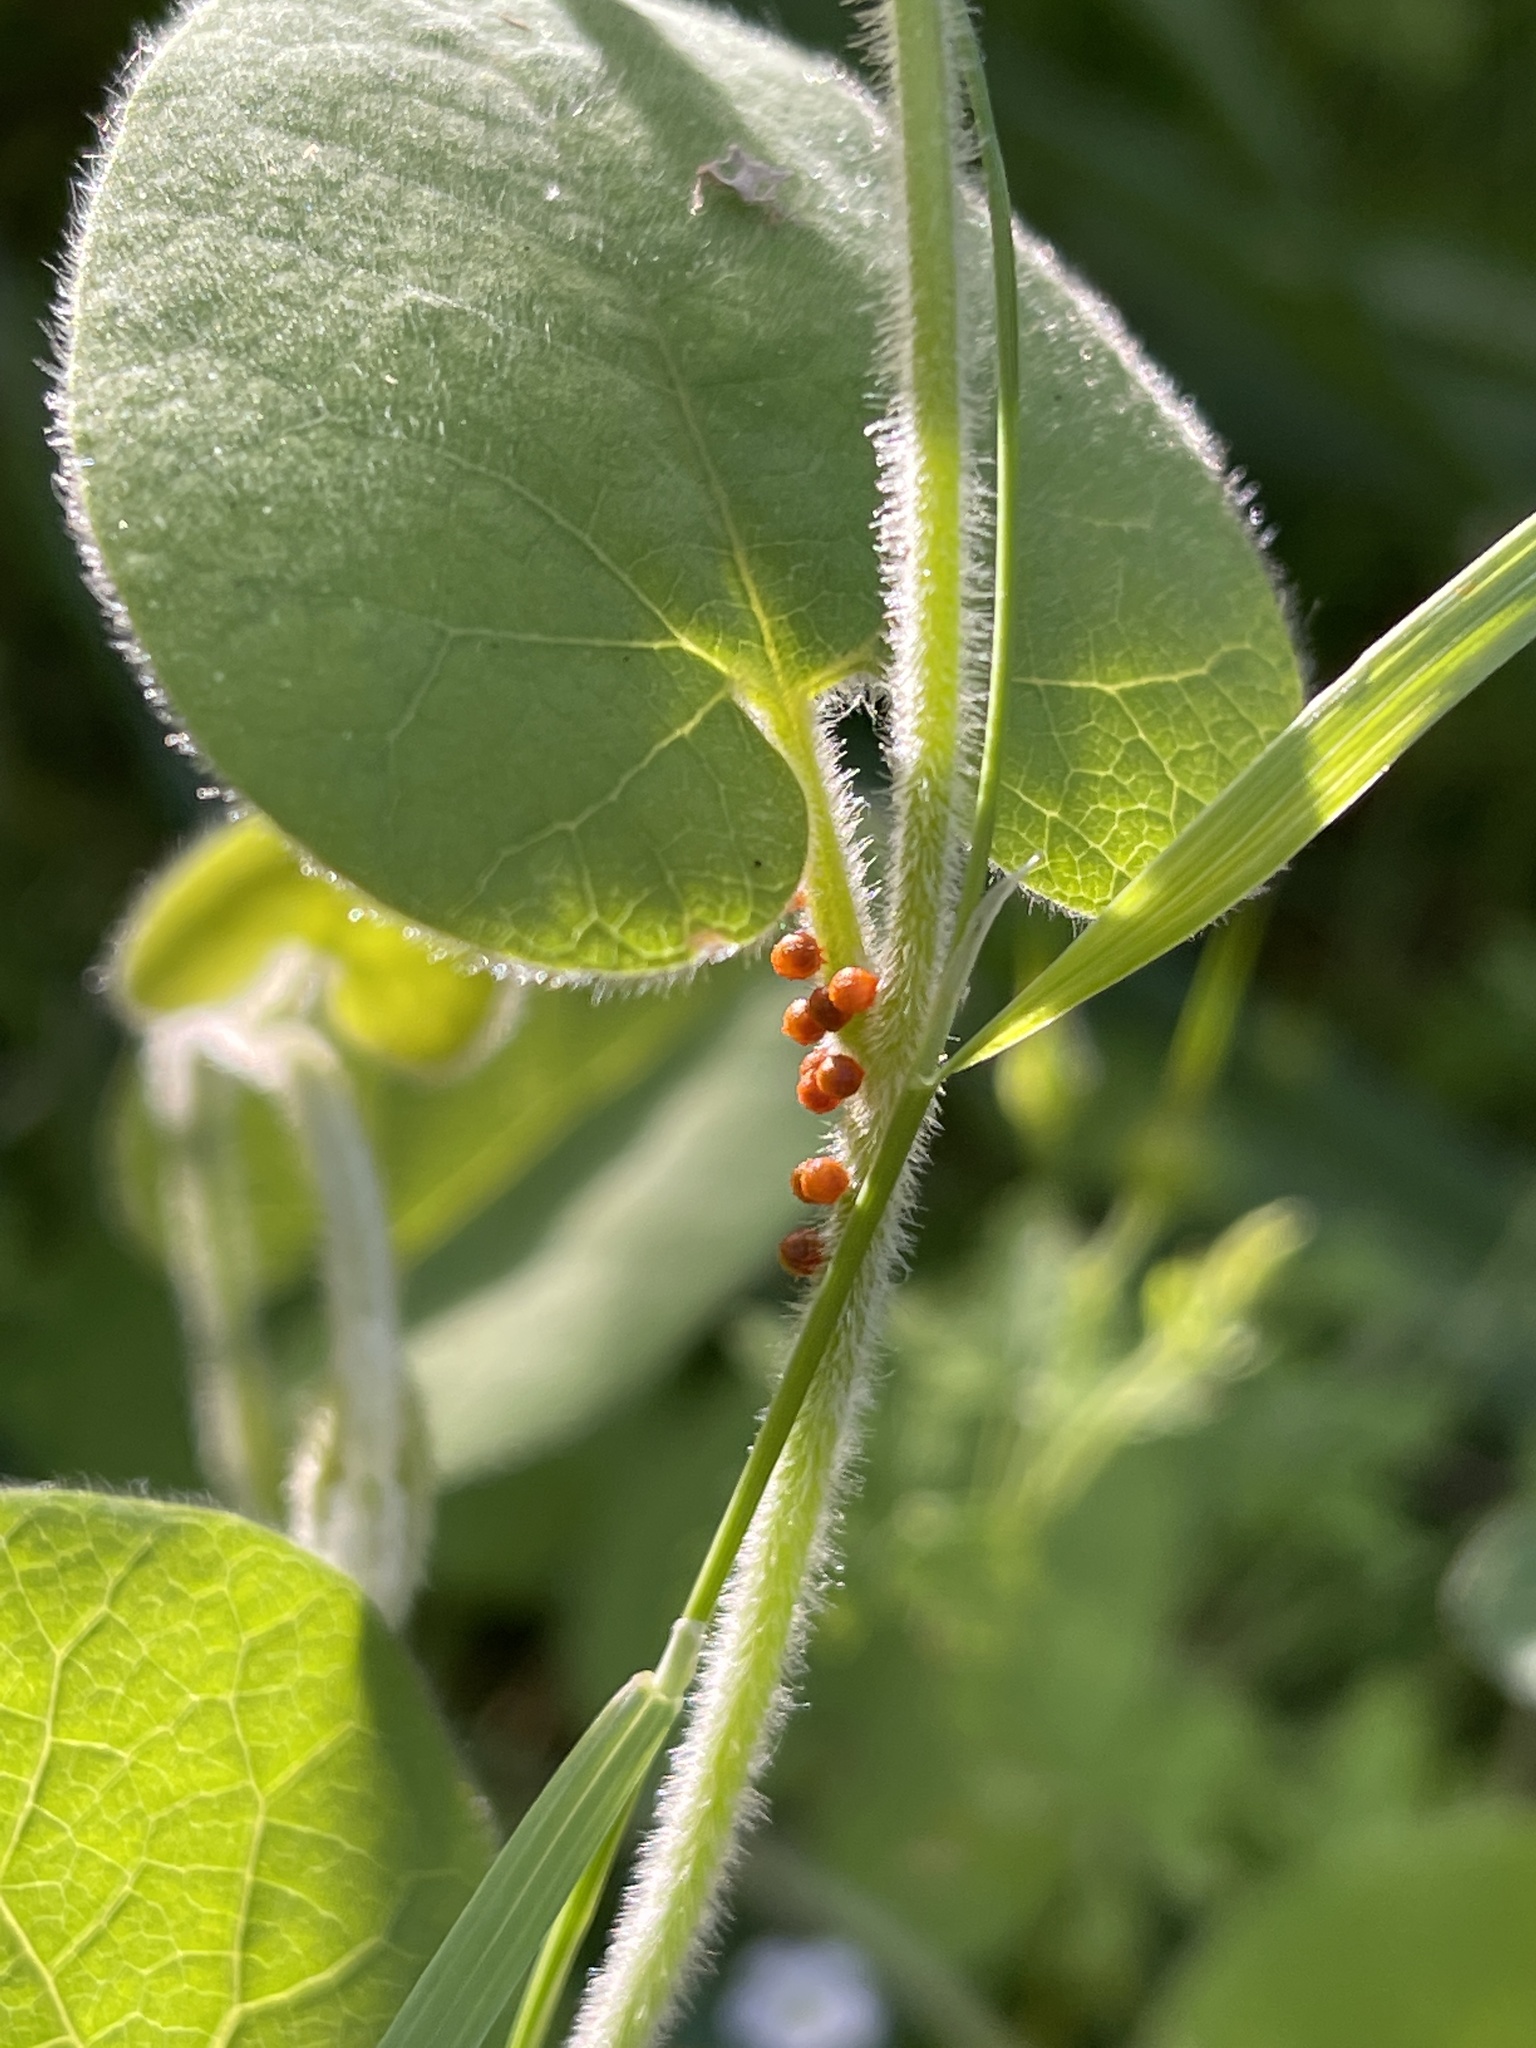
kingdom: Animalia
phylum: Arthropoda
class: Insecta
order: Lepidoptera
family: Papilionidae
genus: Battus
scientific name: Battus philenor
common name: Pipevine swallowtail
